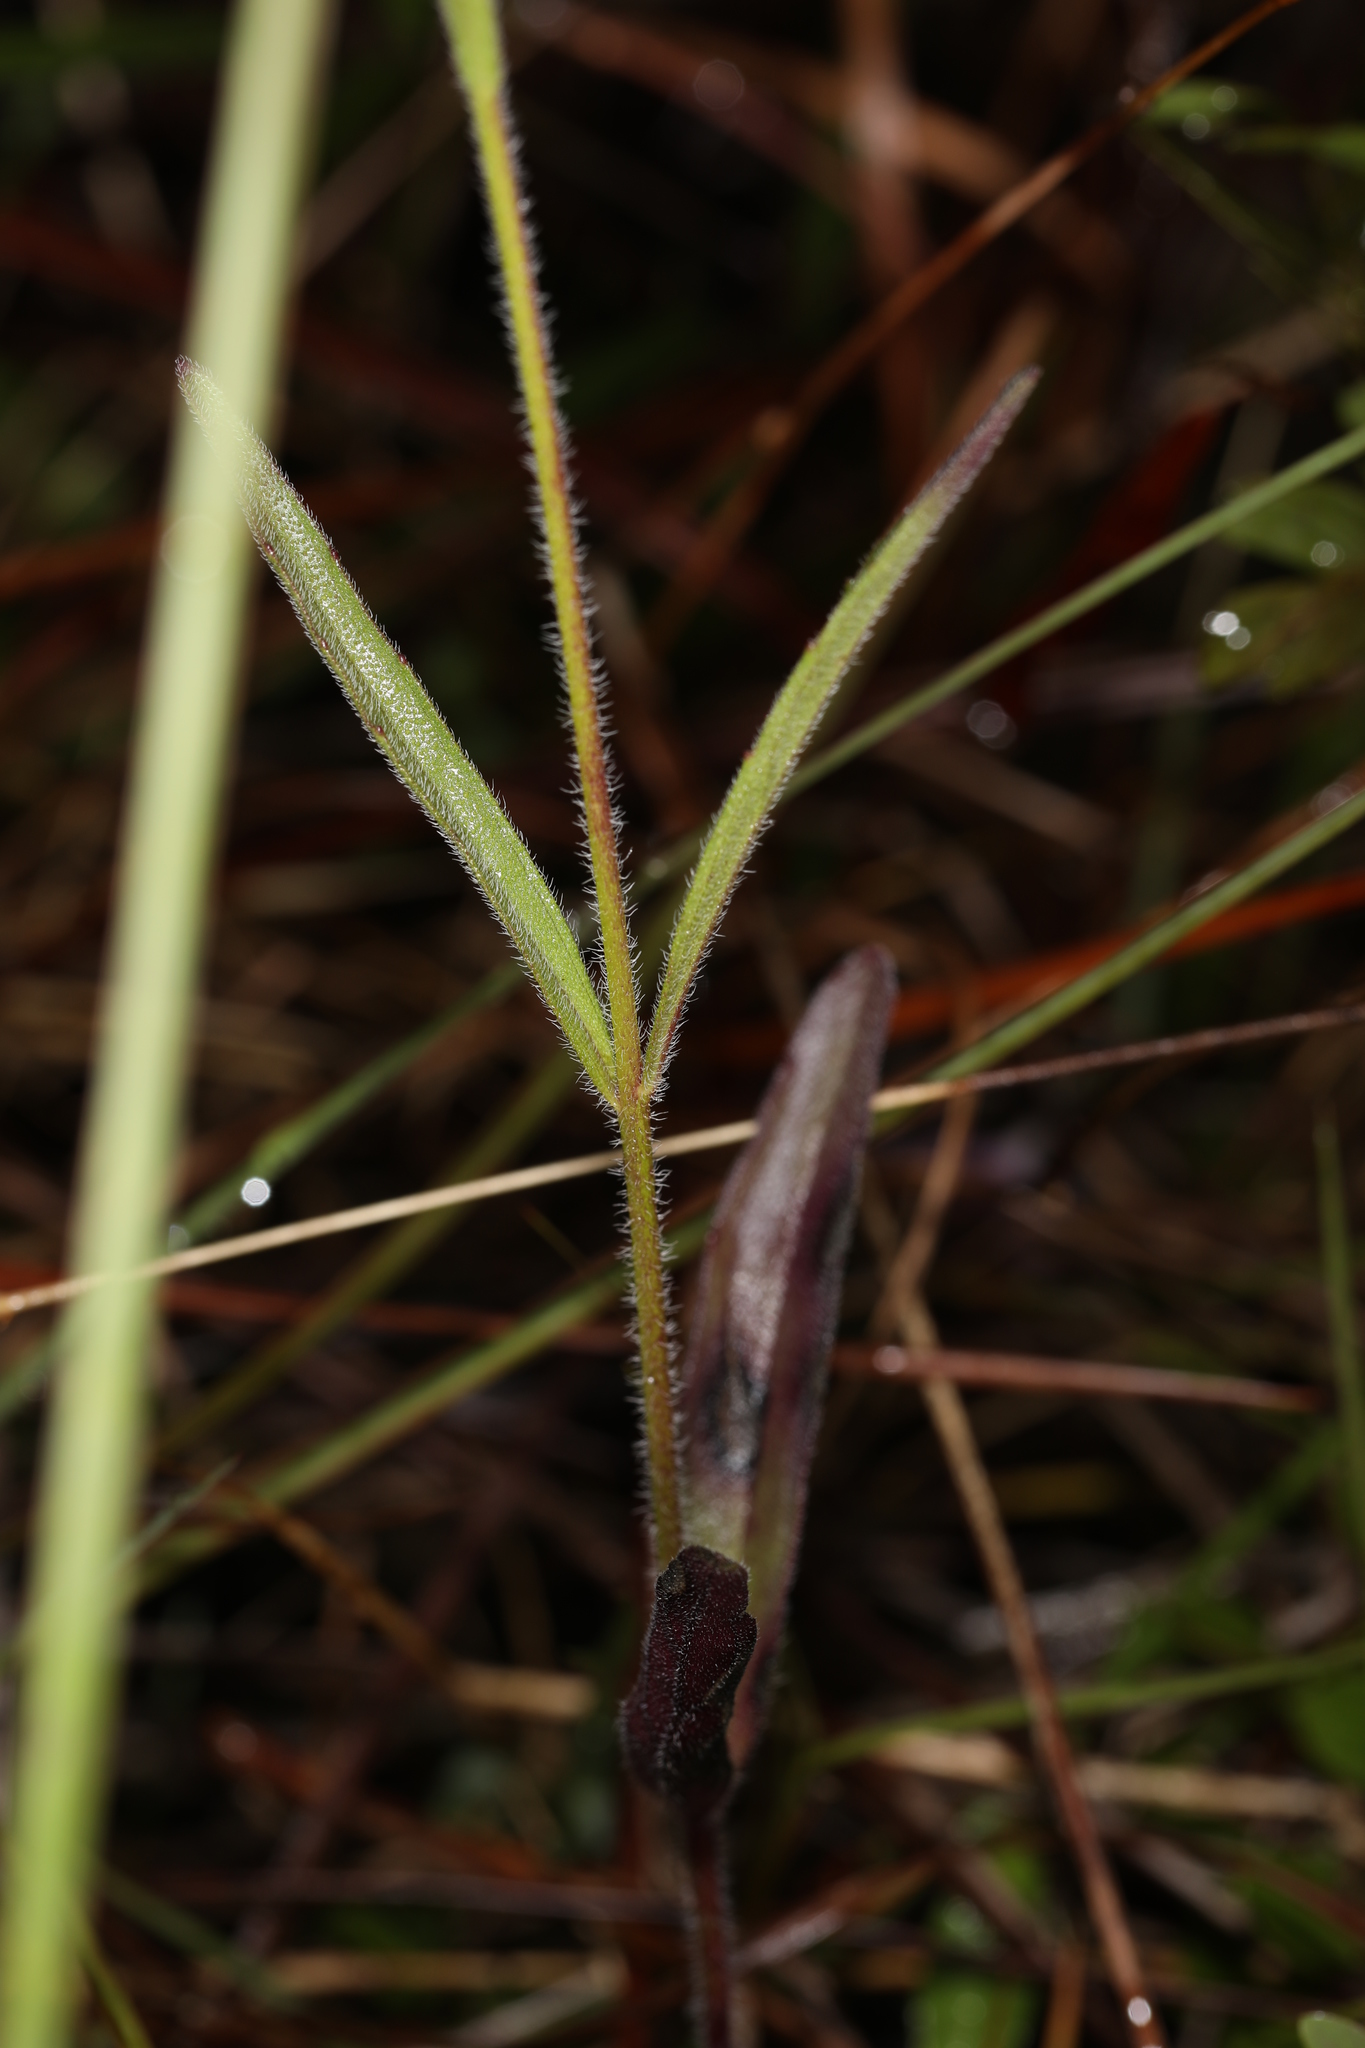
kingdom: Plantae
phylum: Tracheophyta
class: Magnoliopsida
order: Lamiales
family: Orobanchaceae
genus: Buchnera
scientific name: Buchnera floridana
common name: Florida bluehearts
